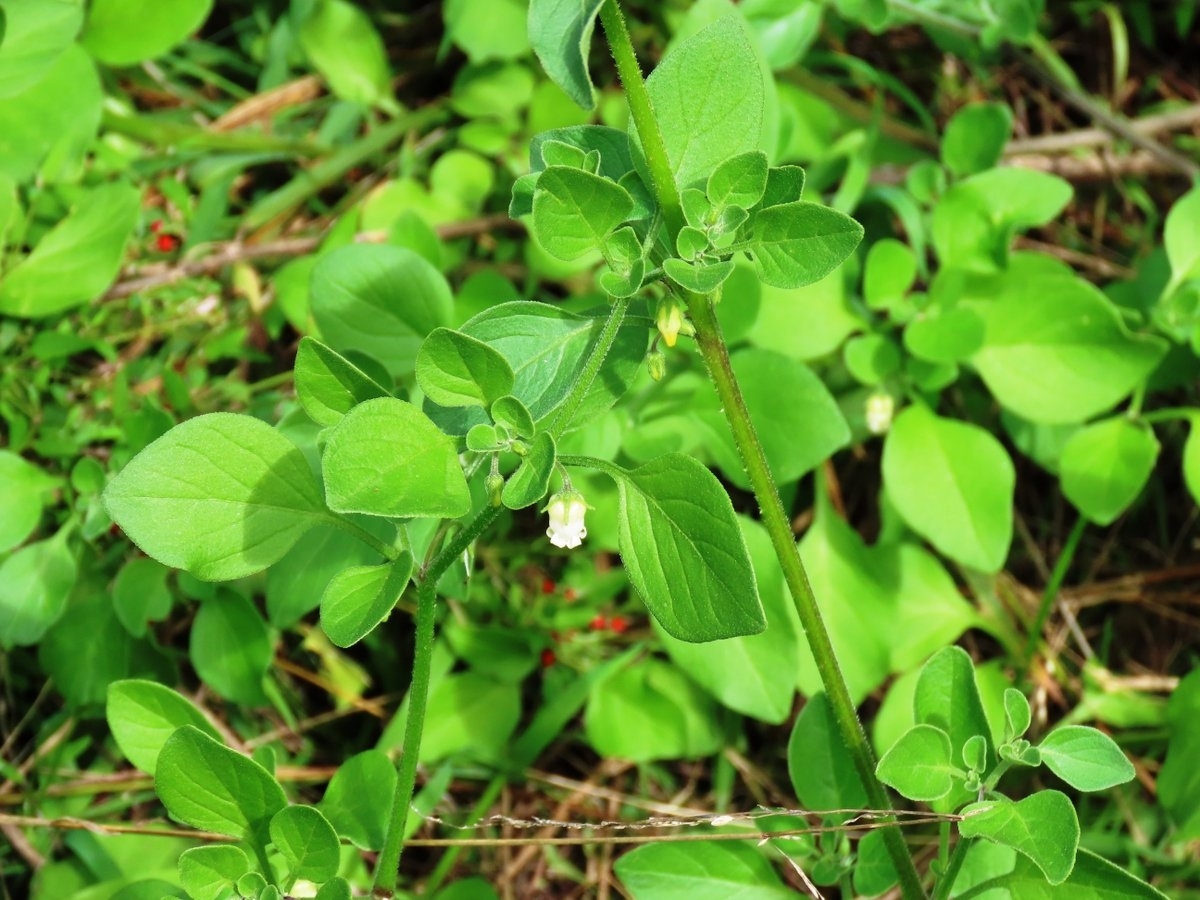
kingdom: Plantae
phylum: Tracheophyta
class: Magnoliopsida
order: Solanales
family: Solanaceae
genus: Salpichroa
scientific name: Salpichroa origanifolia
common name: Lily-of-the-valley-vine
